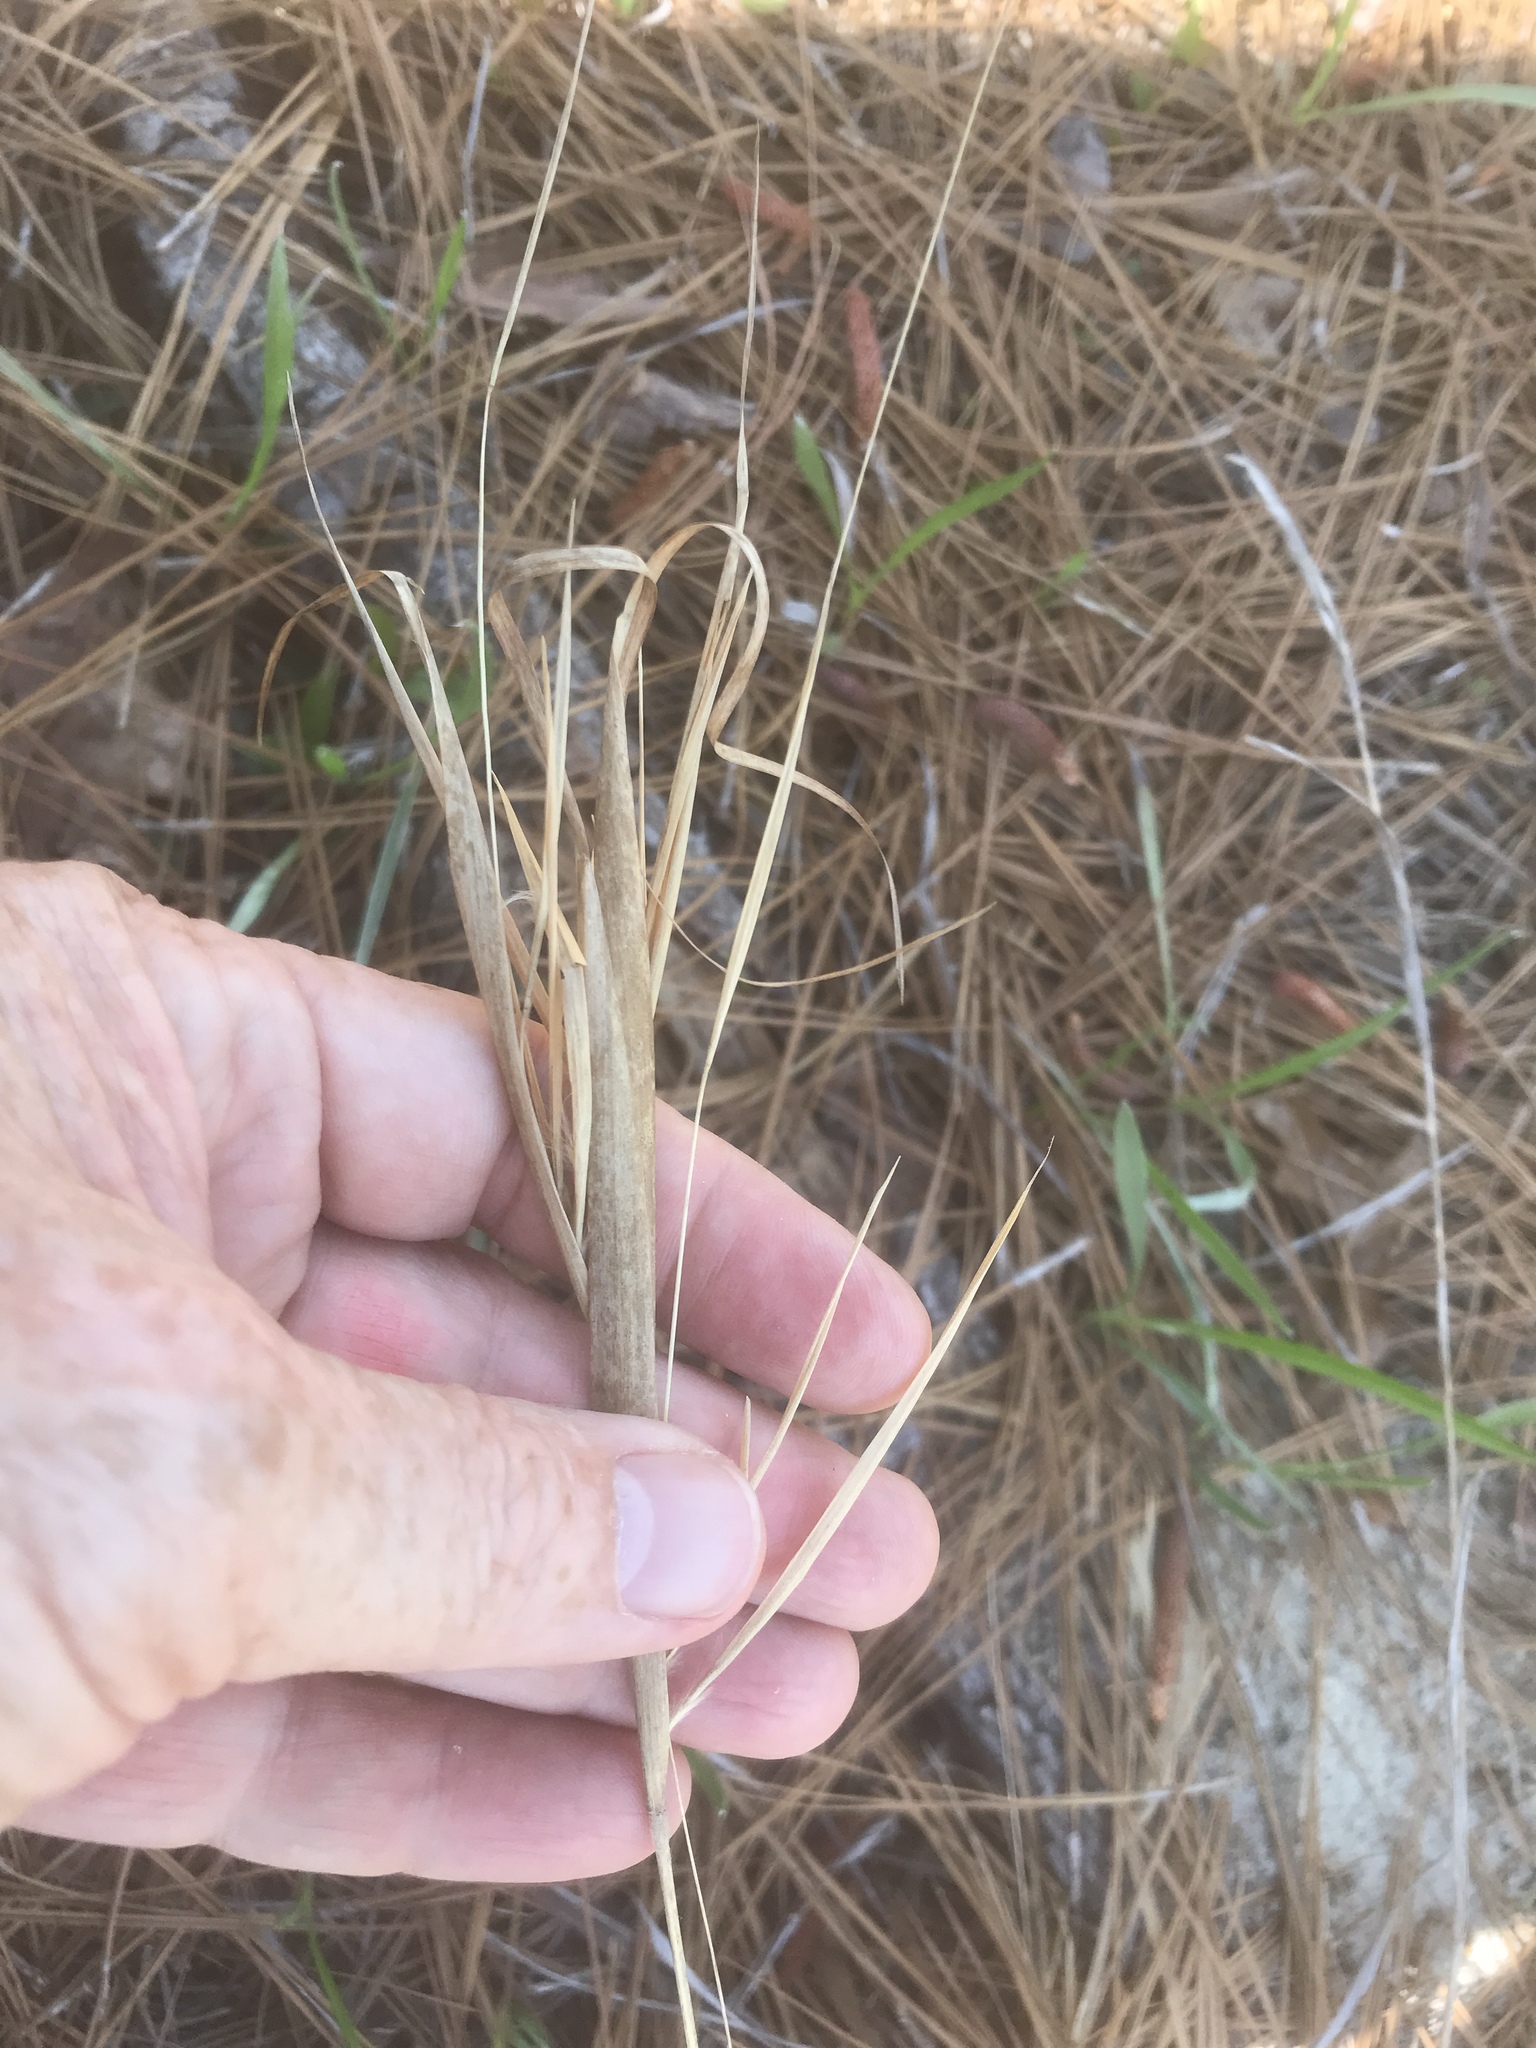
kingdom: Plantae
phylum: Tracheophyta
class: Liliopsida
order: Poales
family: Poaceae
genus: Andropogon
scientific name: Andropogon gyrans
